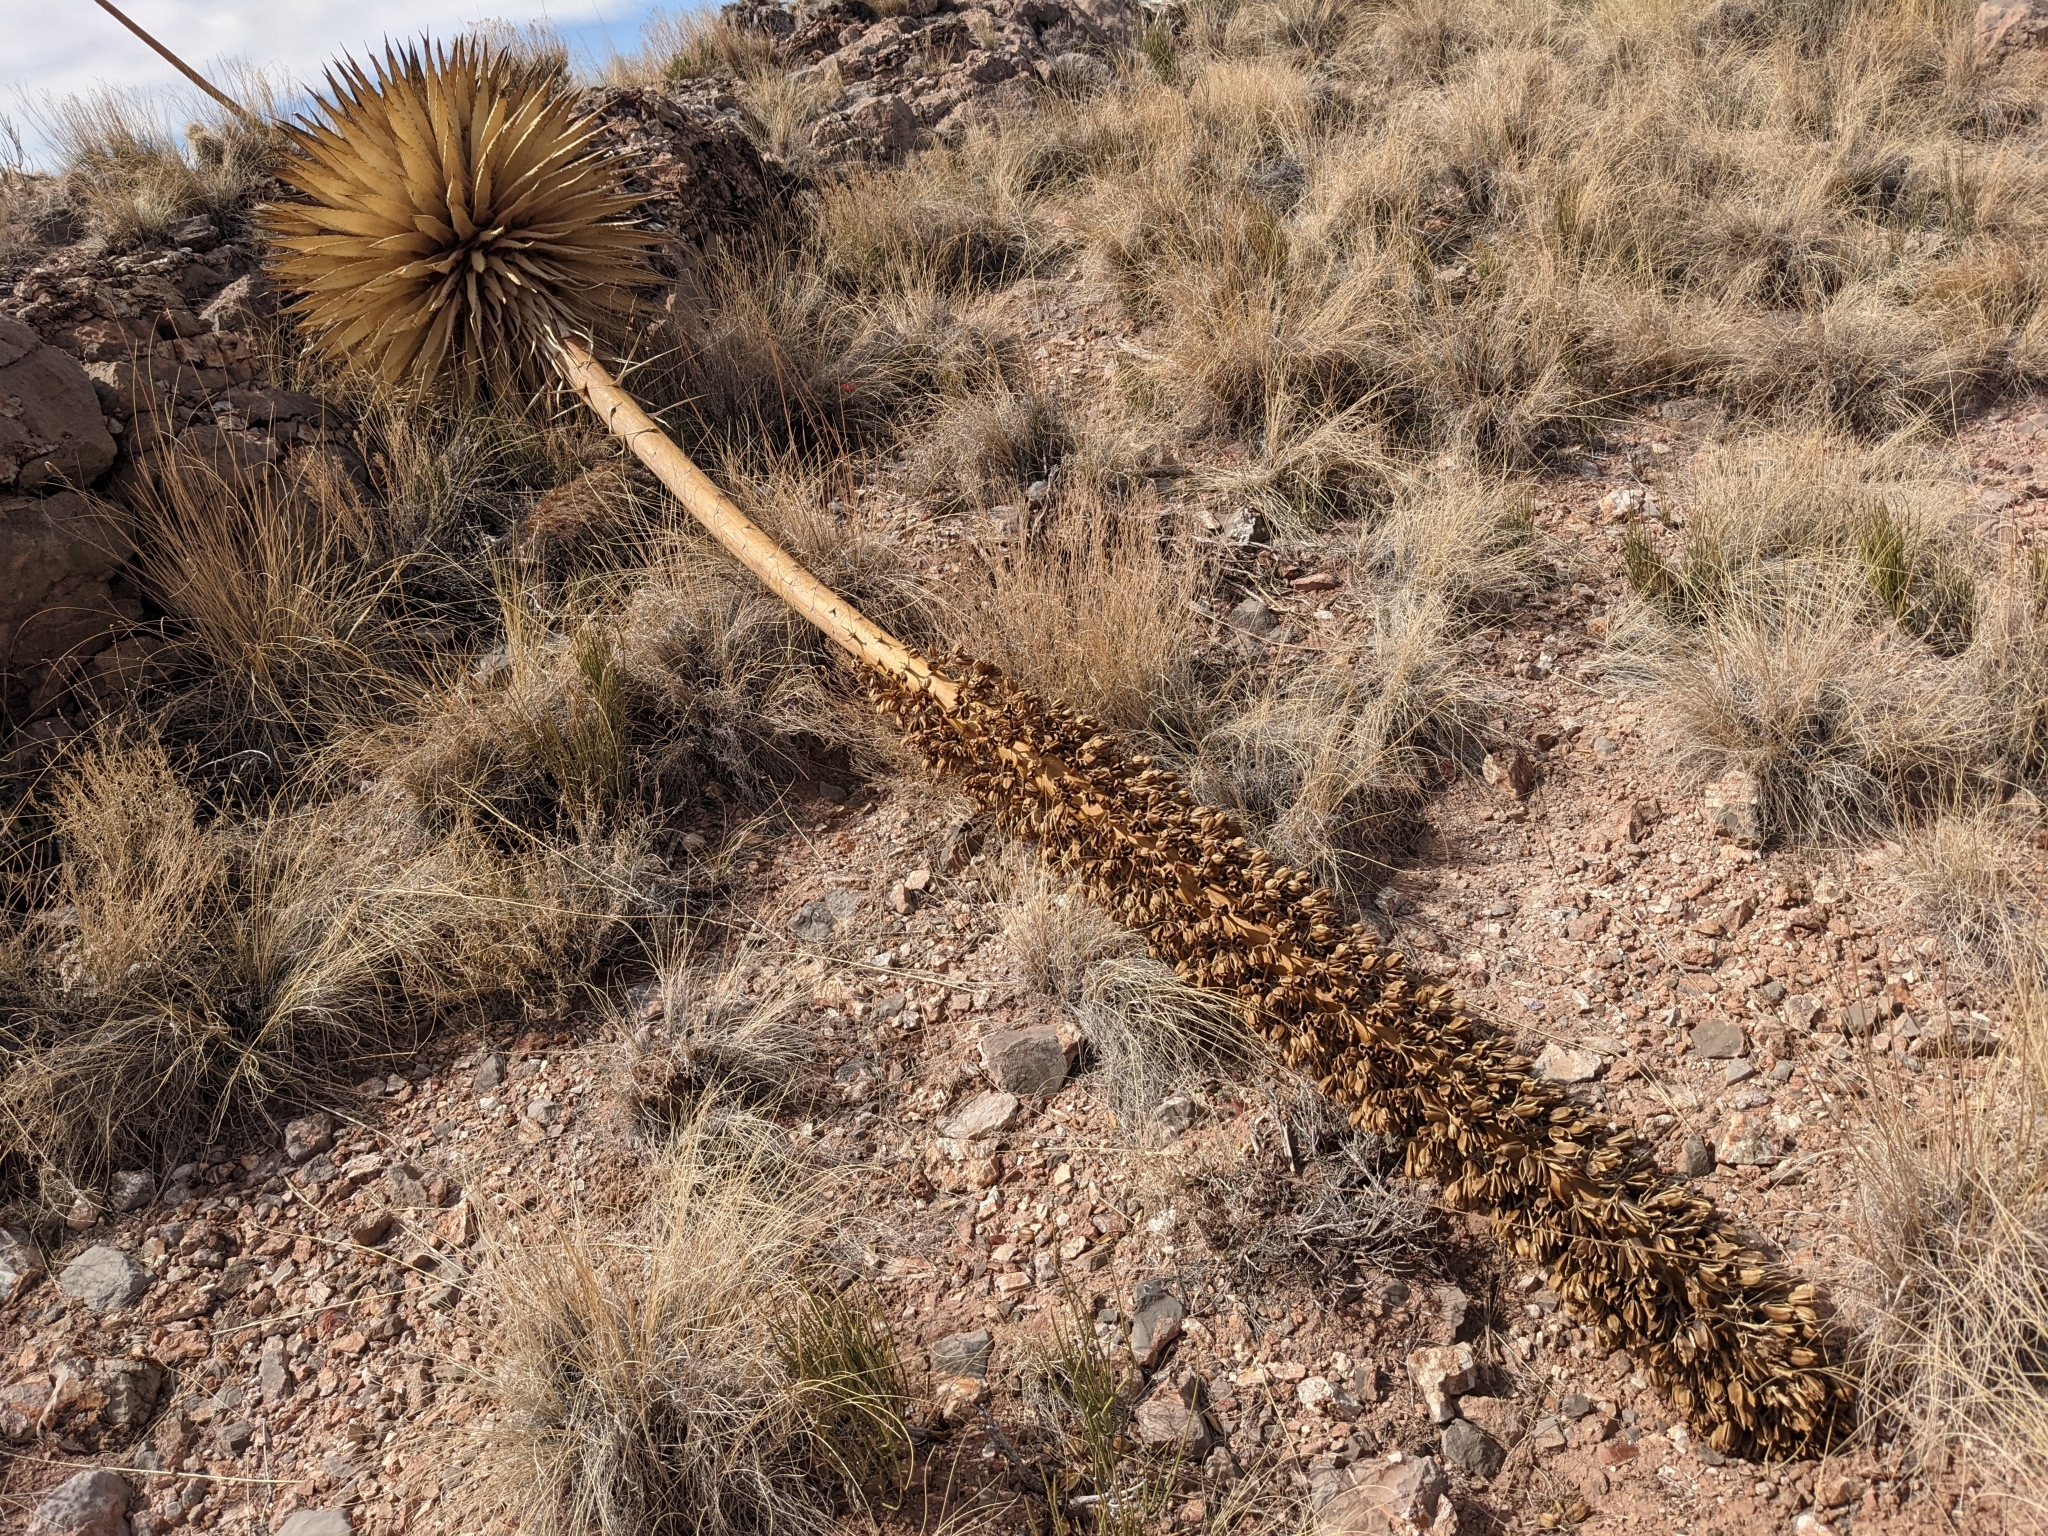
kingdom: Plantae
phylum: Tracheophyta
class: Liliopsida
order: Asparagales
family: Asparagaceae
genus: Agave
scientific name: Agave utahensis
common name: Utah agave
